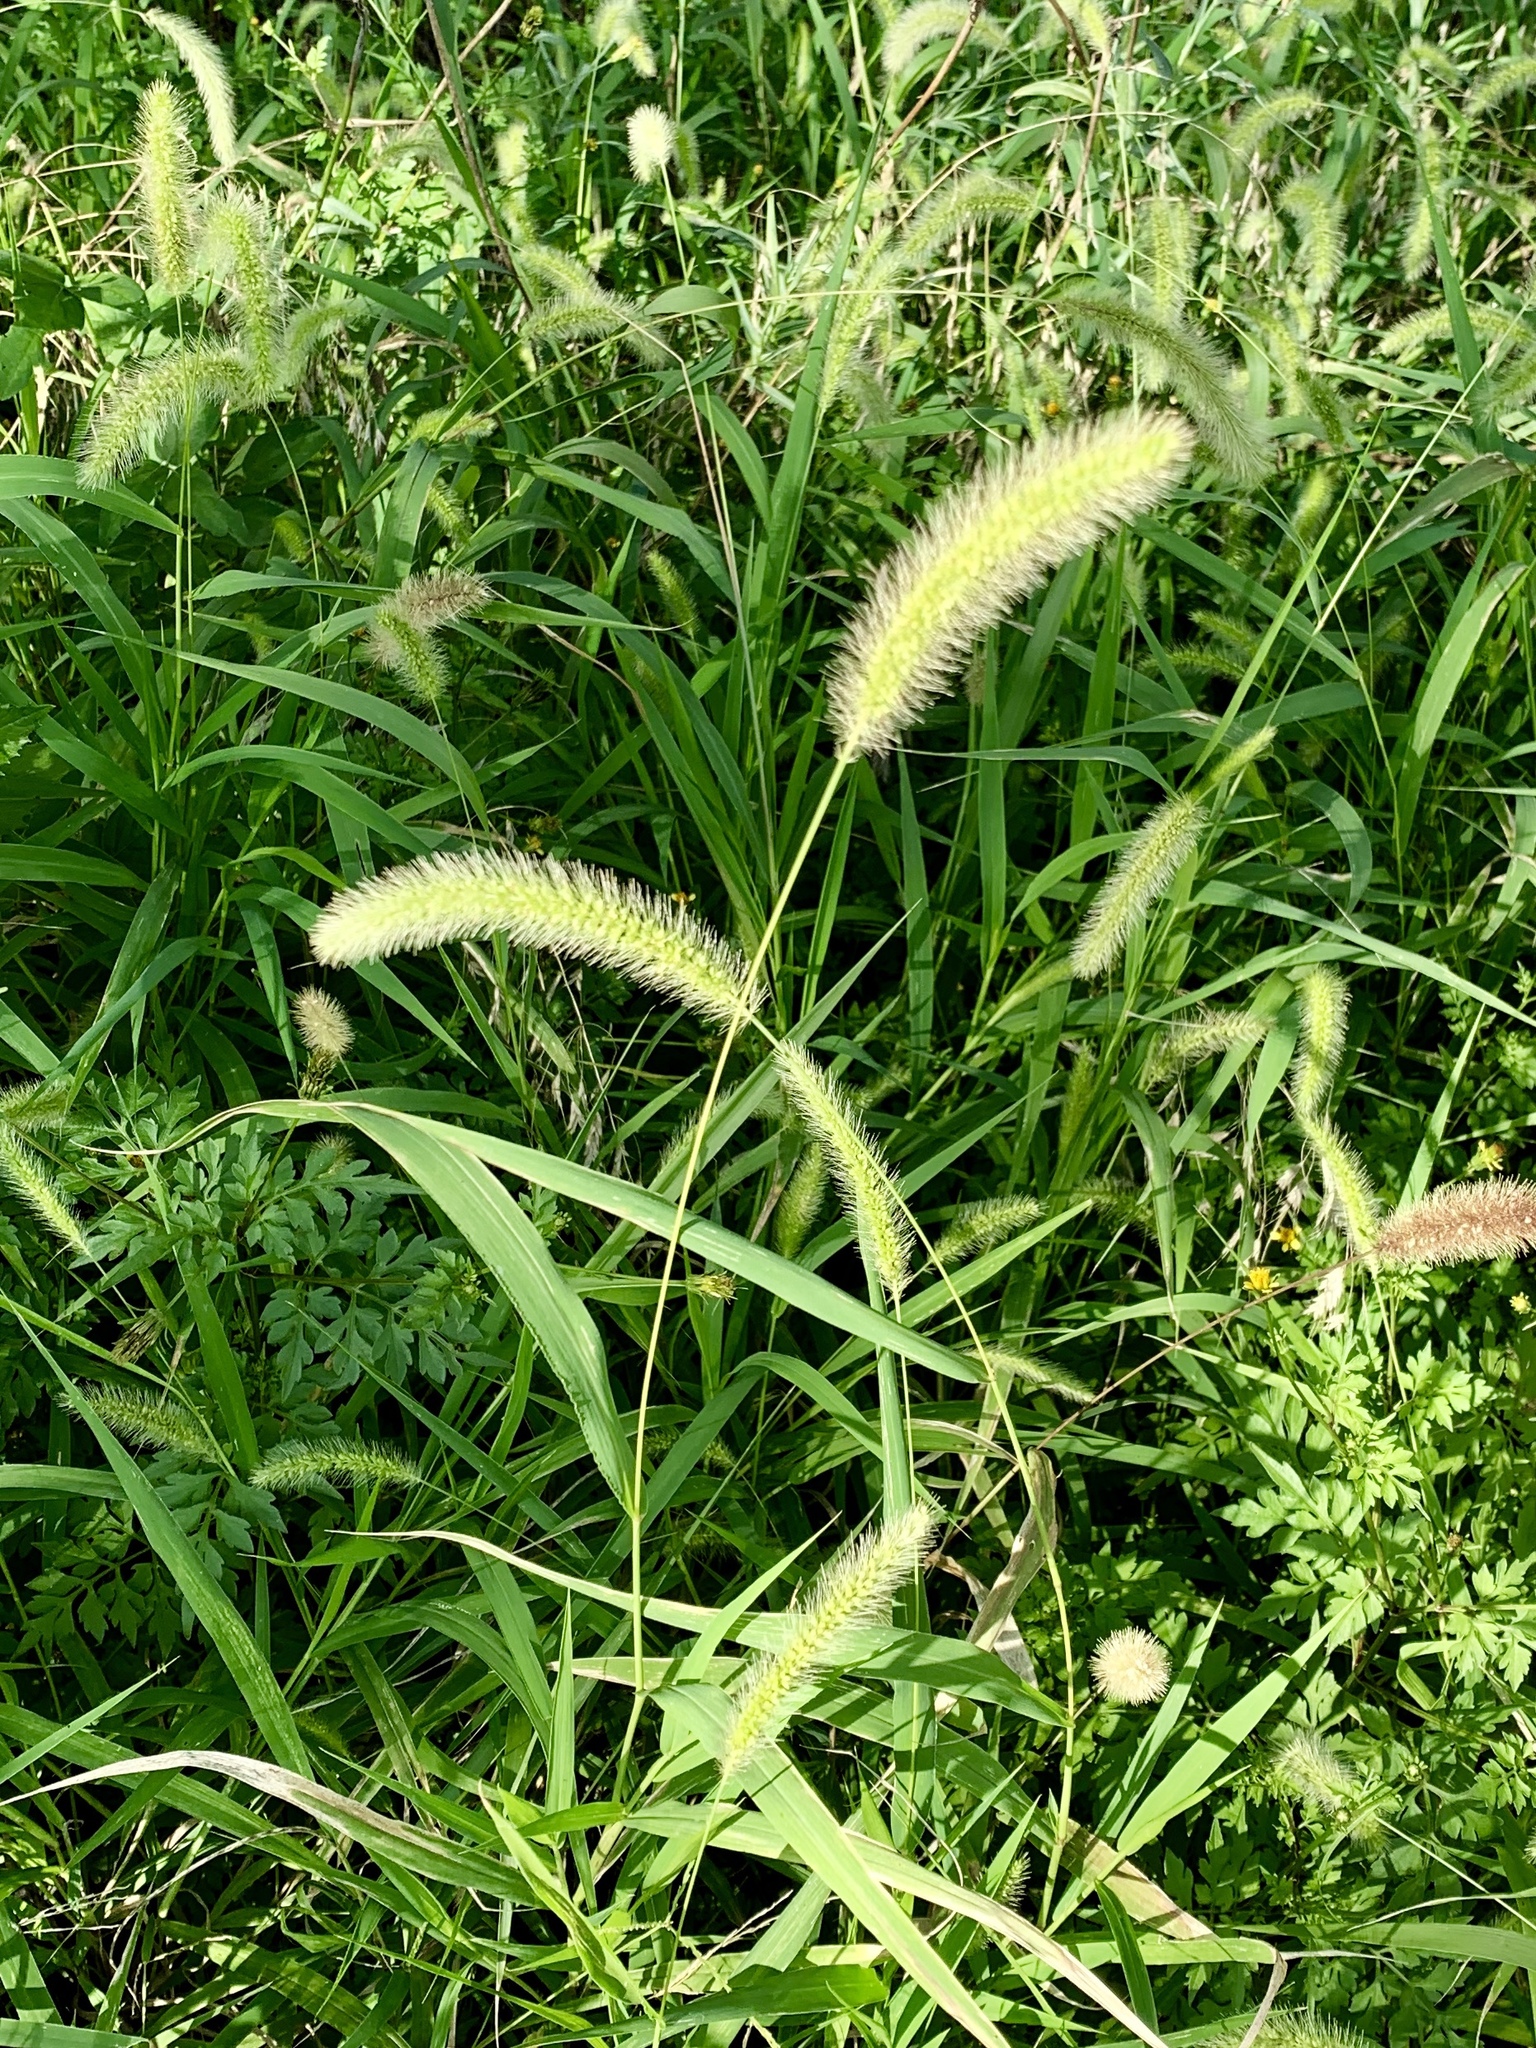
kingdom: Plantae
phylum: Tracheophyta
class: Liliopsida
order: Poales
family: Poaceae
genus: Setaria
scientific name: Setaria viridis
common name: Green bristlegrass
